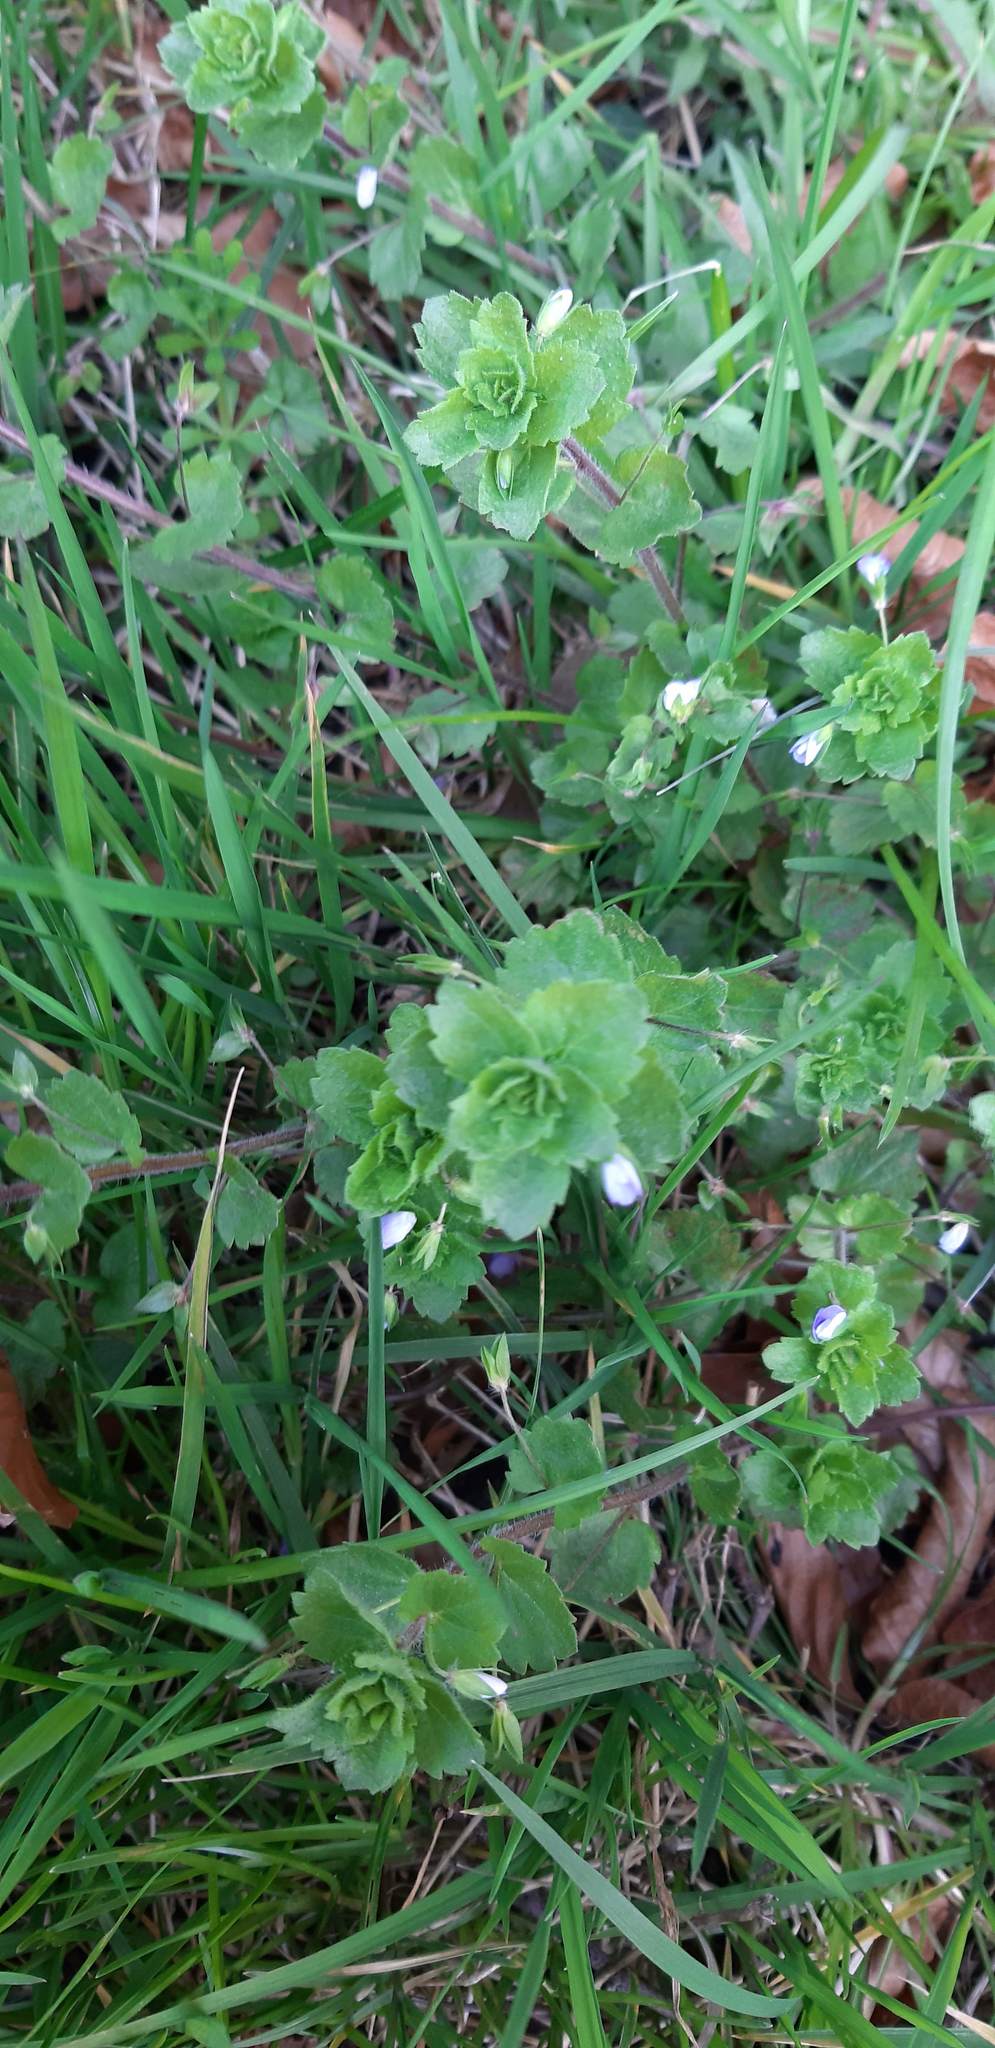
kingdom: Plantae
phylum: Tracheophyta
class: Magnoliopsida
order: Lamiales
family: Plantaginaceae
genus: Veronica
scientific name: Veronica persica
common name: Common field-speedwell
